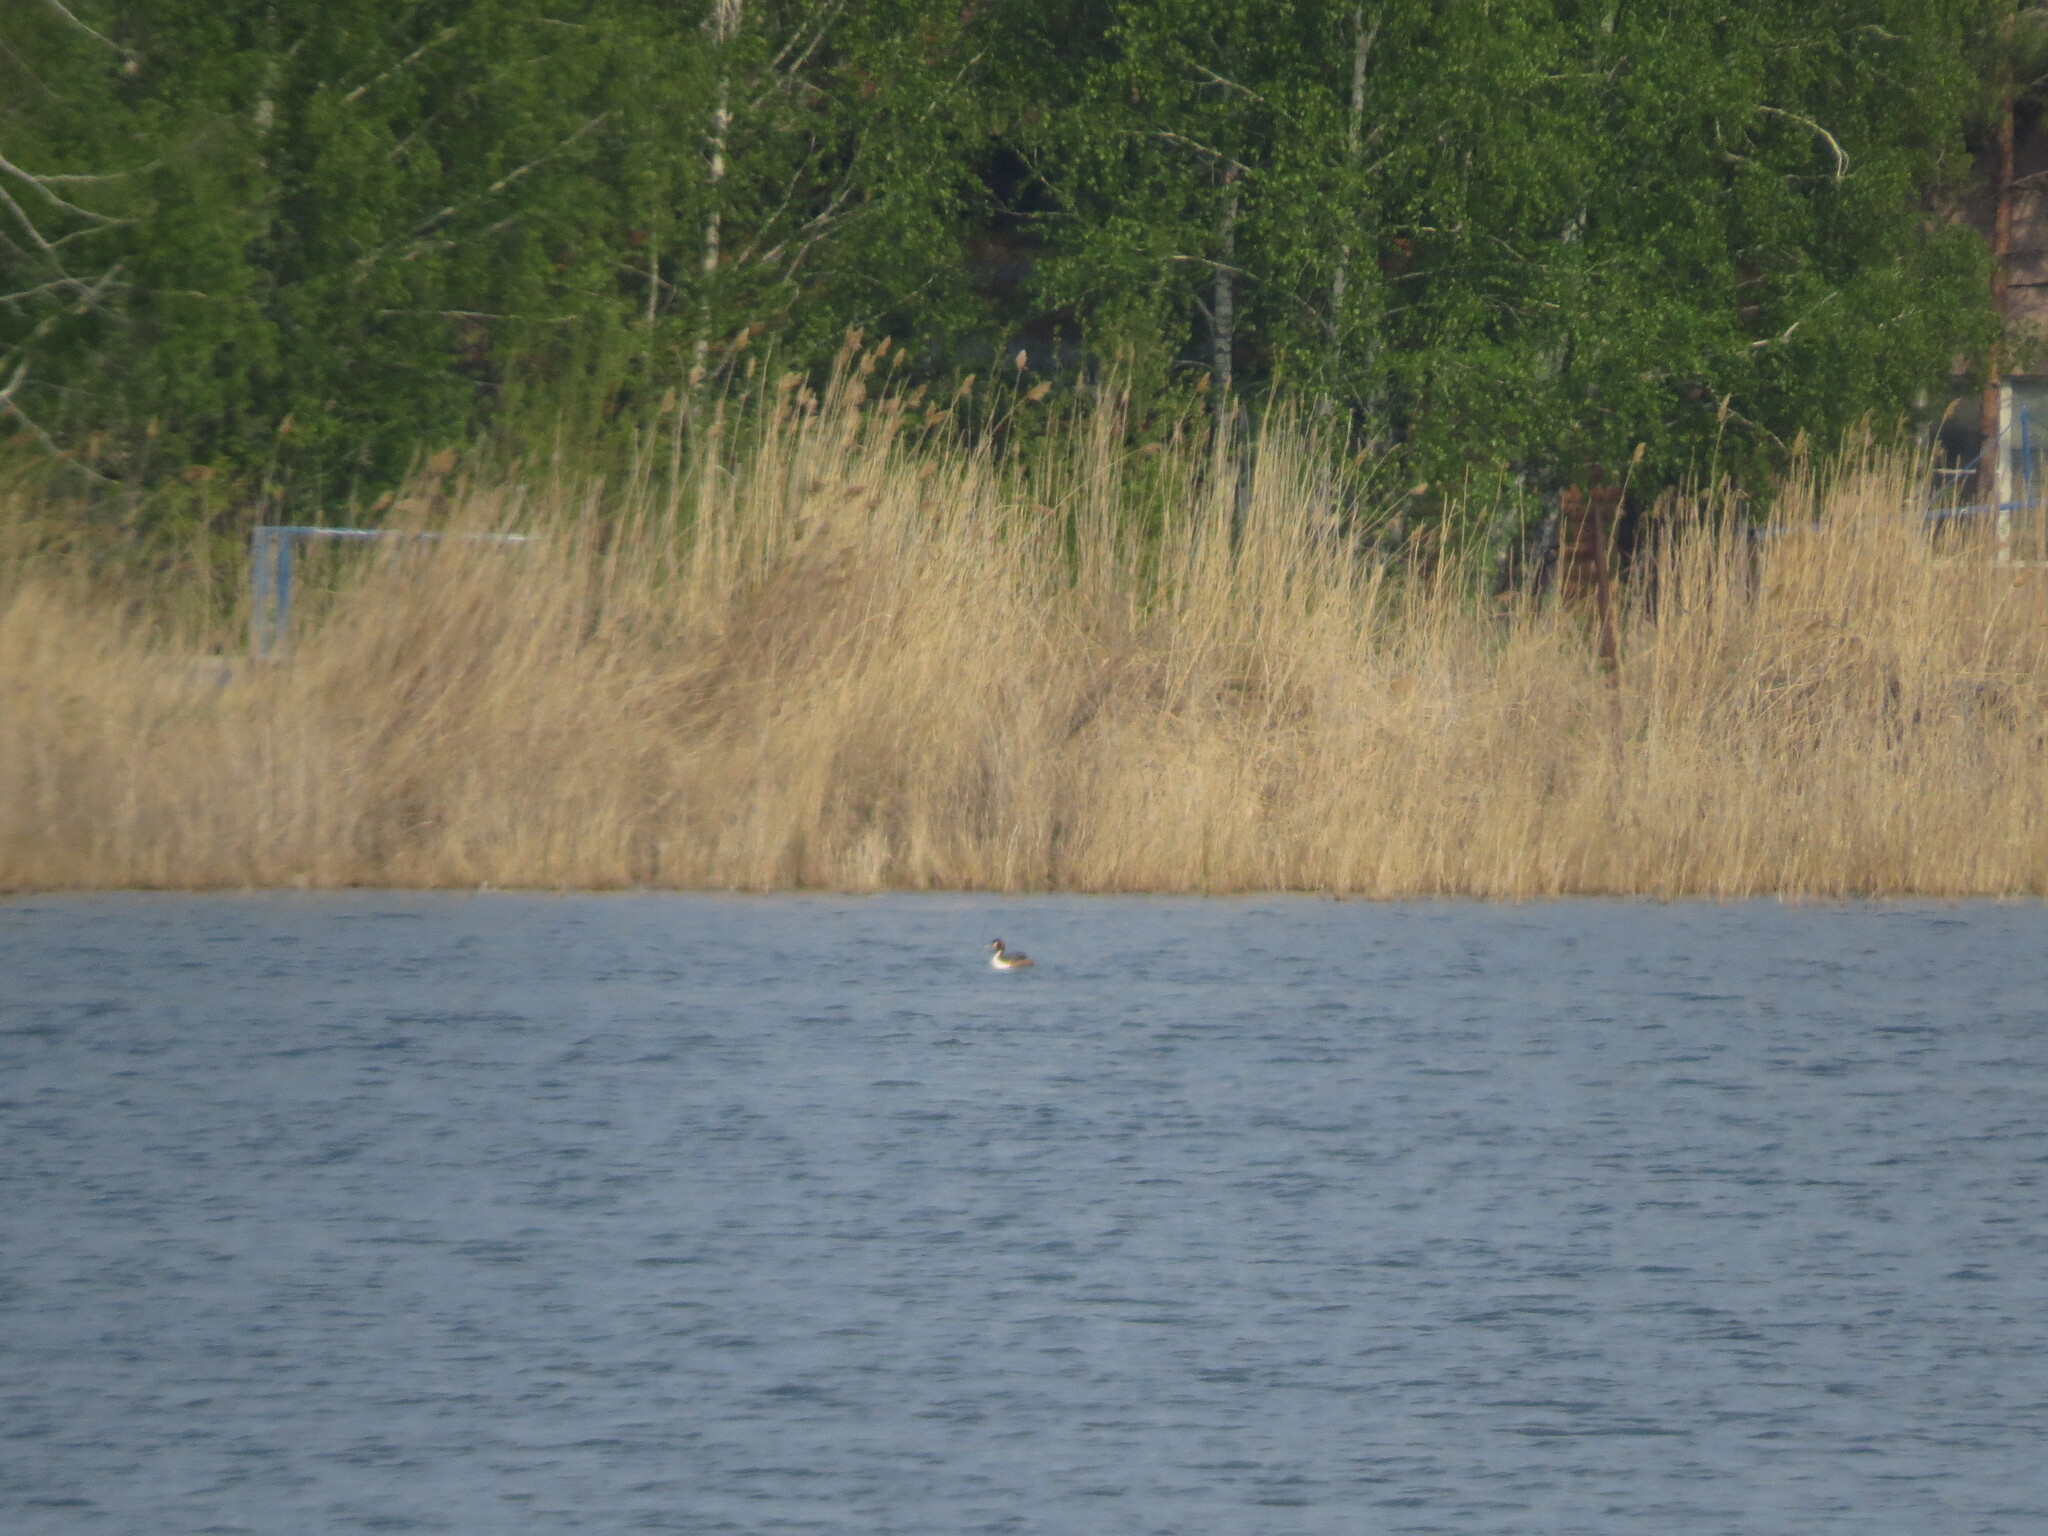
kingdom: Animalia
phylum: Chordata
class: Aves
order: Podicipediformes
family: Podicipedidae
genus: Podiceps
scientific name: Podiceps cristatus
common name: Great crested grebe
